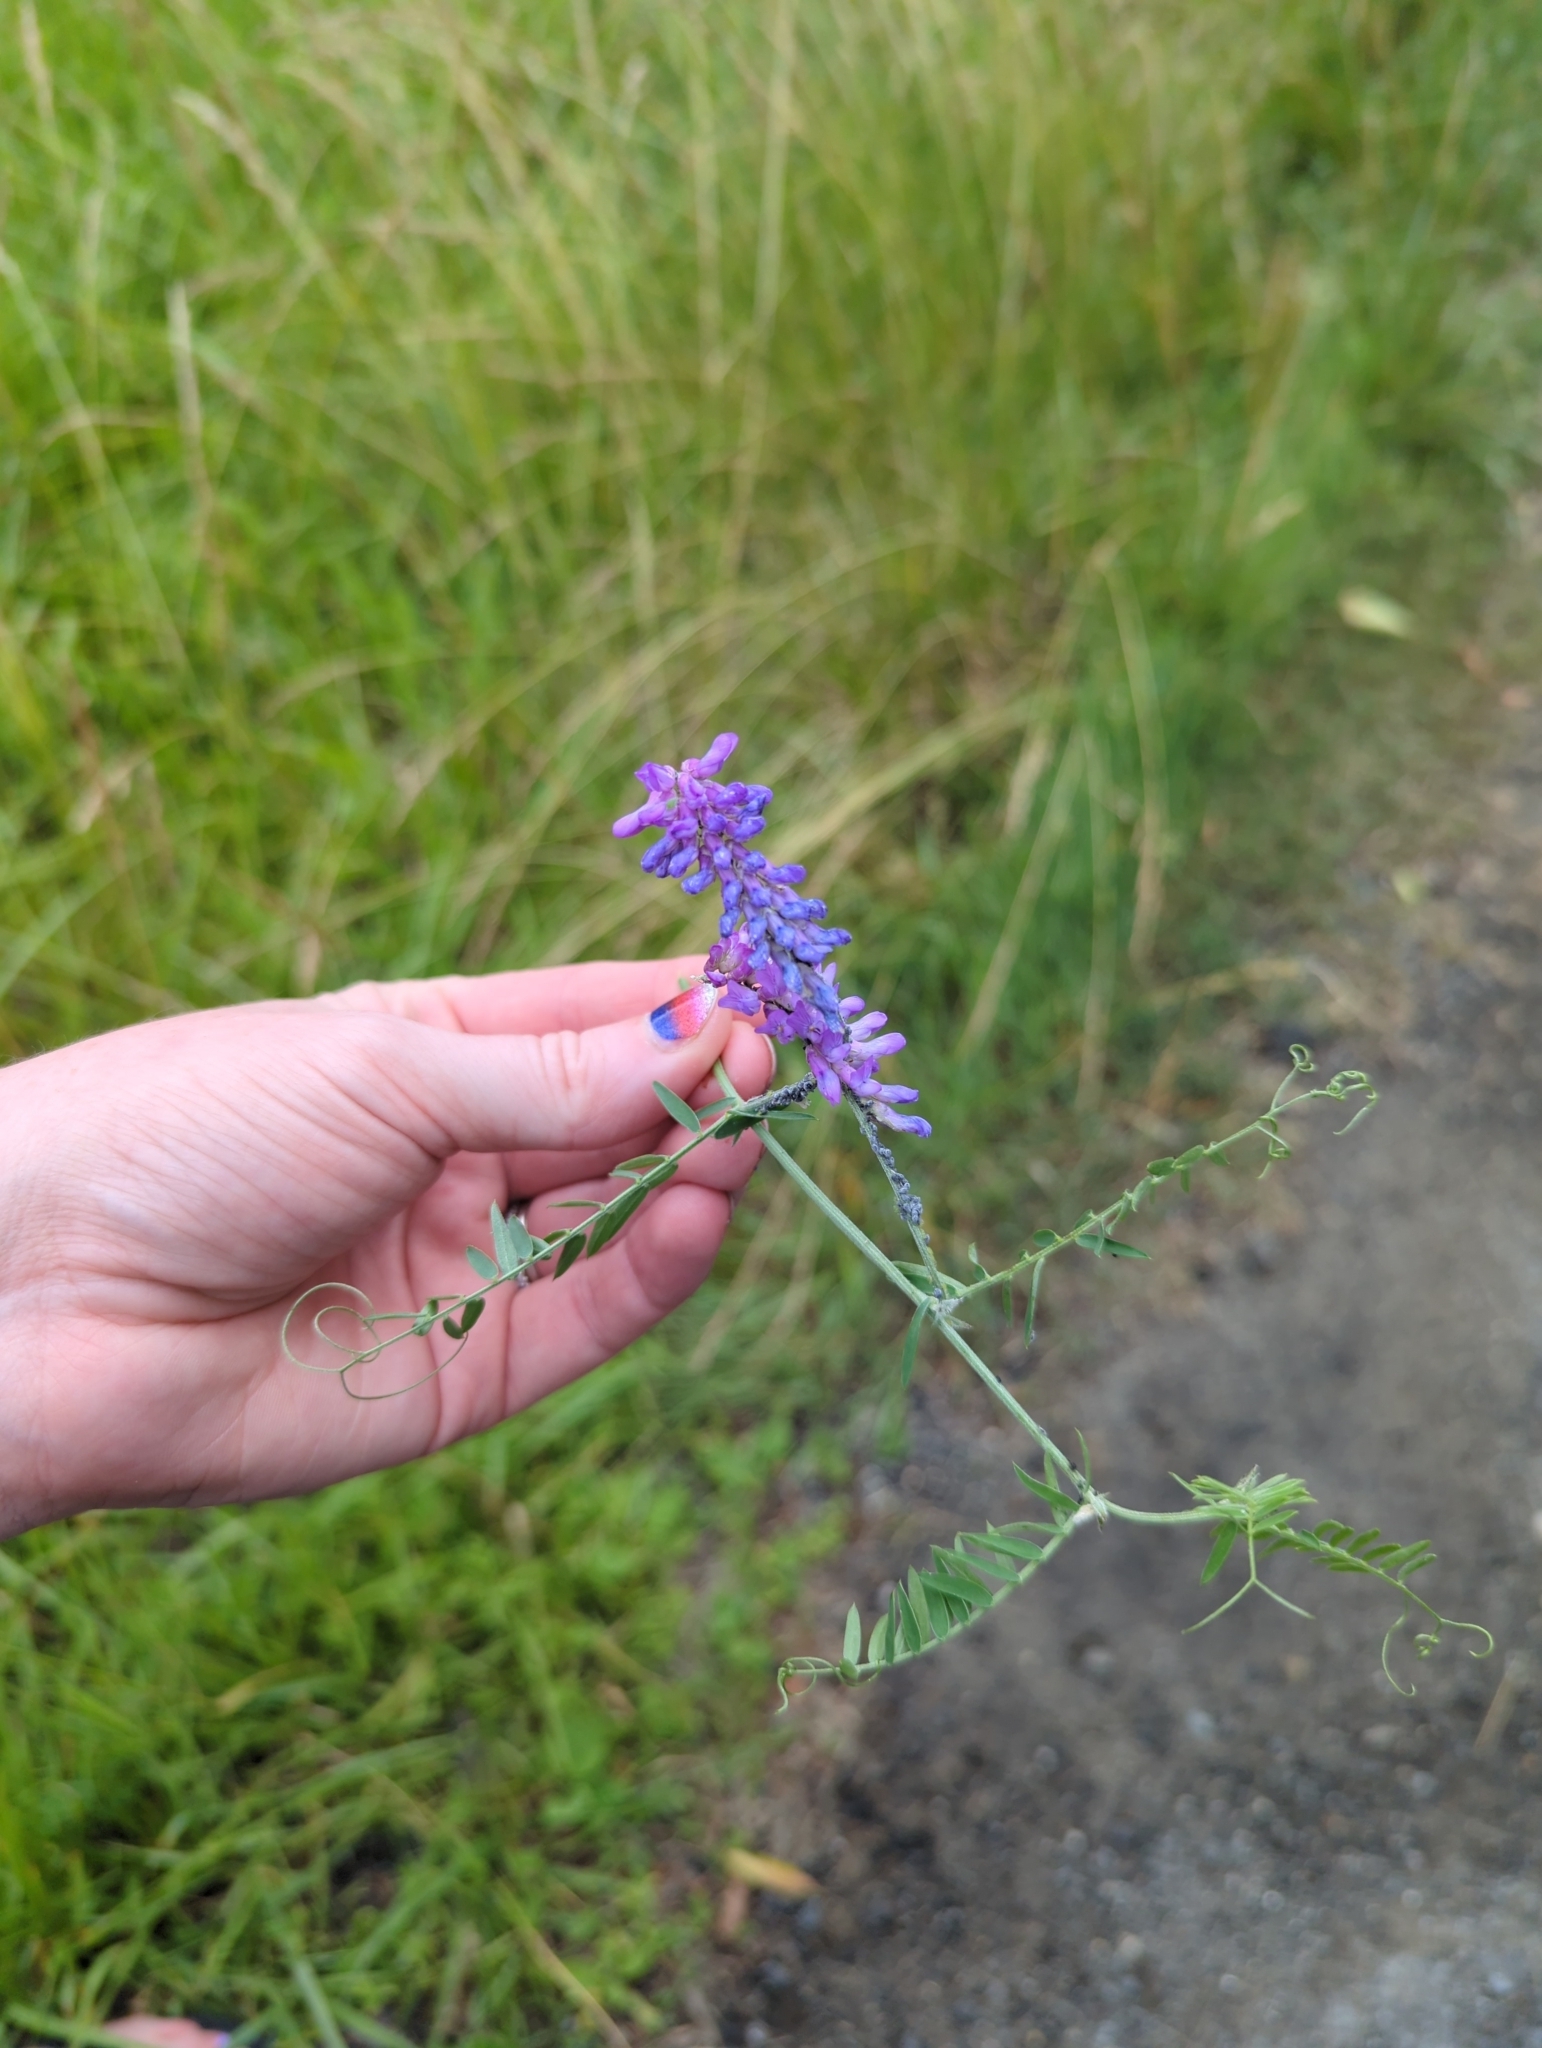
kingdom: Plantae
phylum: Tracheophyta
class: Magnoliopsida
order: Fabales
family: Fabaceae
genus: Vicia
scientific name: Vicia cracca
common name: Bird vetch
